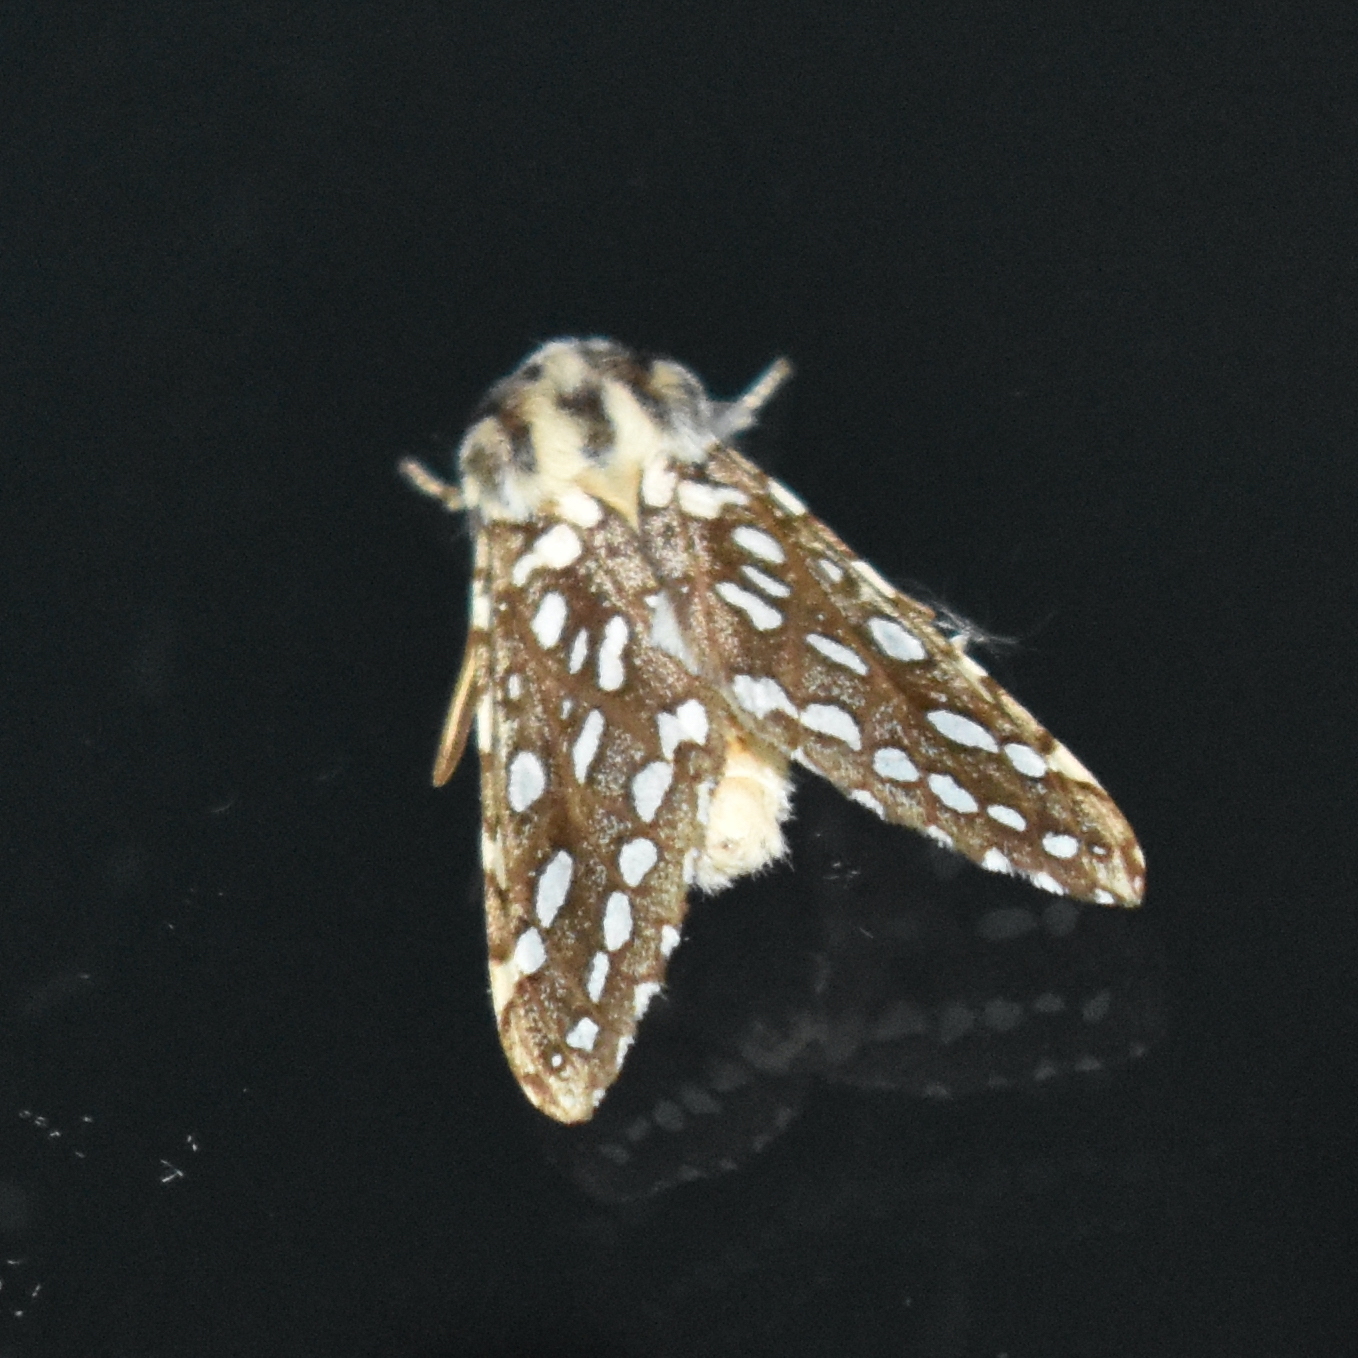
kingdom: Animalia
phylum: Arthropoda
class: Insecta
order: Lepidoptera
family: Erebidae
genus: Lophocampa
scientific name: Lophocampa argentata
